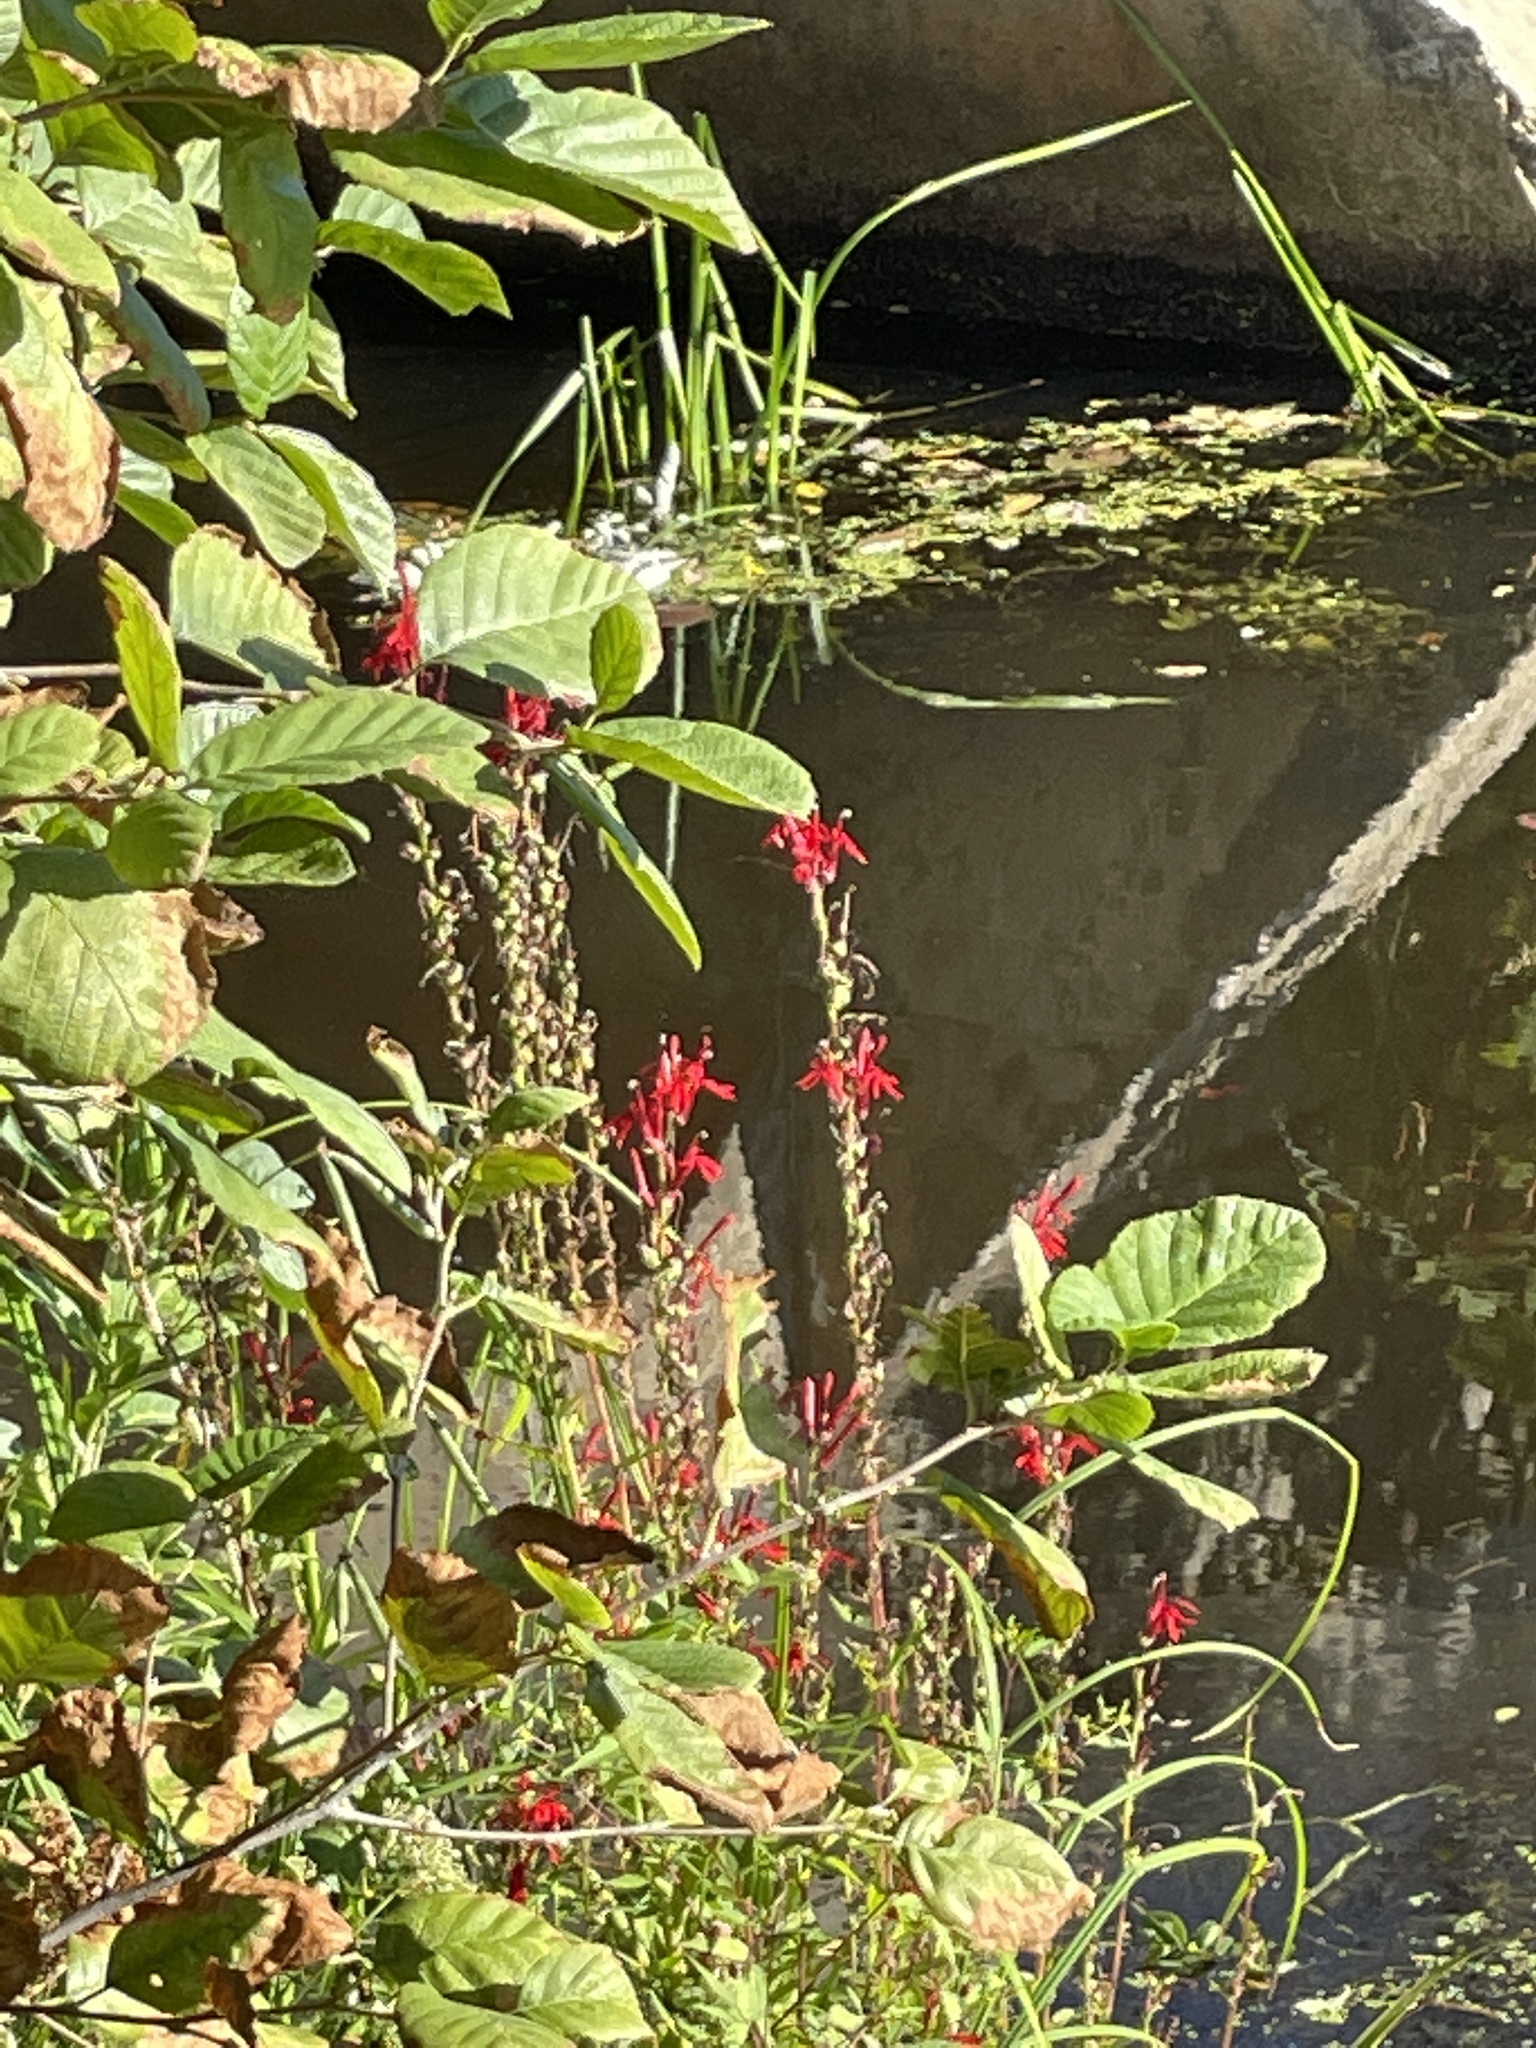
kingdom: Plantae
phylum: Tracheophyta
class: Magnoliopsida
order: Asterales
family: Campanulaceae
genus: Lobelia
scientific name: Lobelia cardinalis
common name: Cardinal flower
